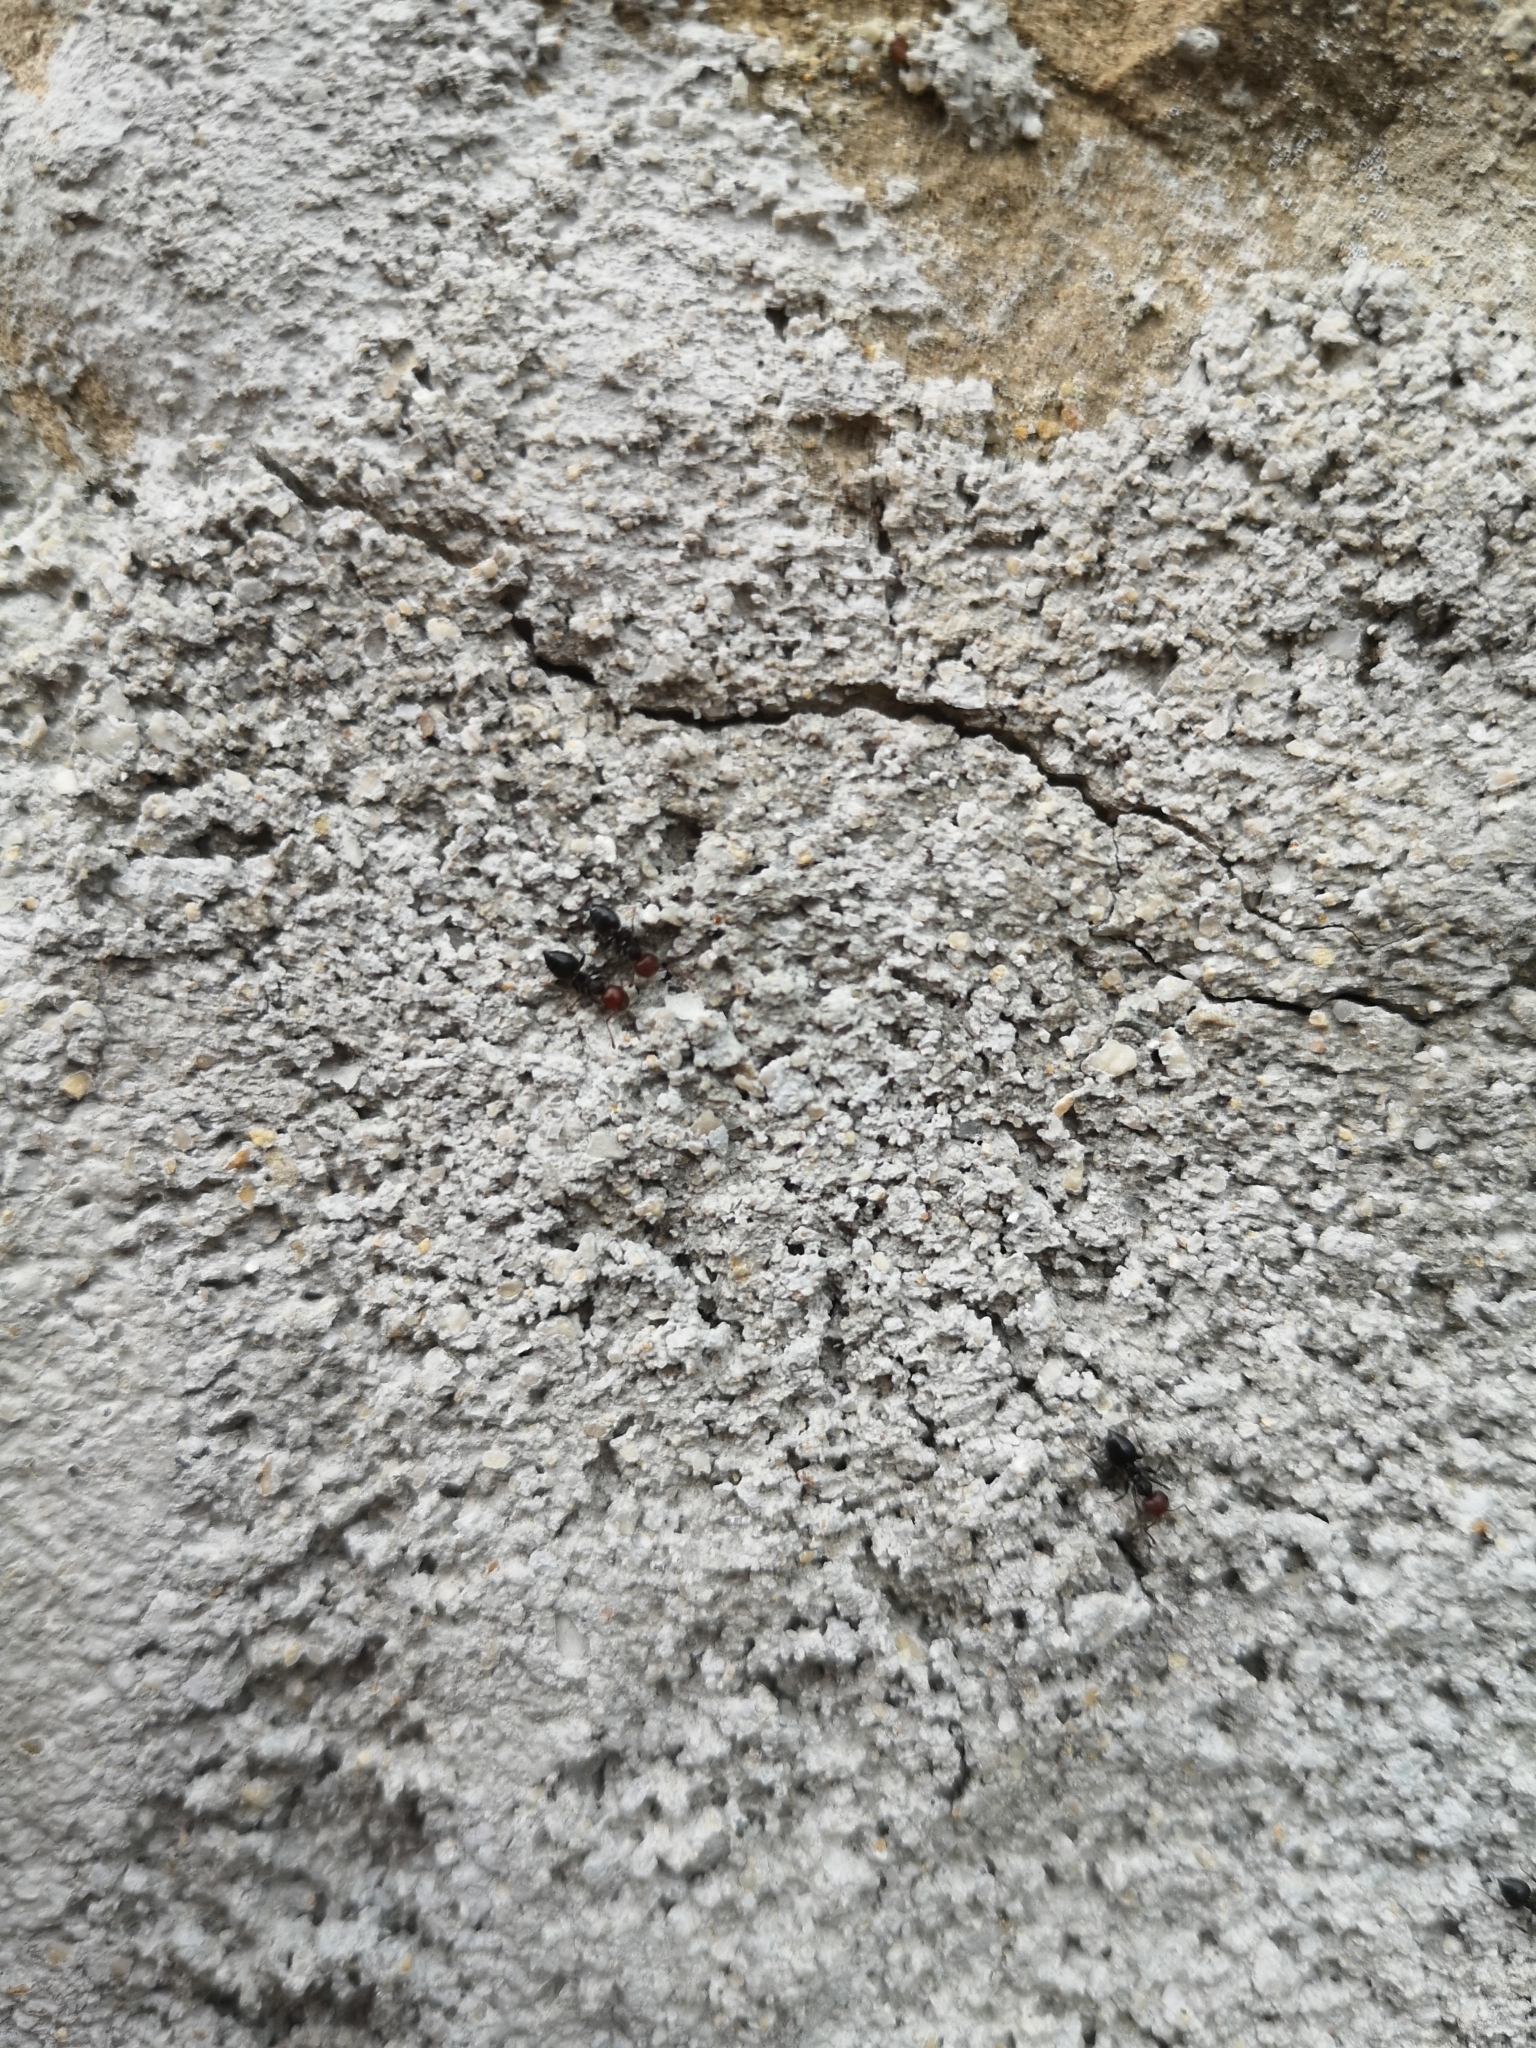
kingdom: Animalia
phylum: Arthropoda
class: Insecta
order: Hymenoptera
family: Formicidae
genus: Crematogaster
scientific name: Crematogaster scutellaris
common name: Fourmi du liège
